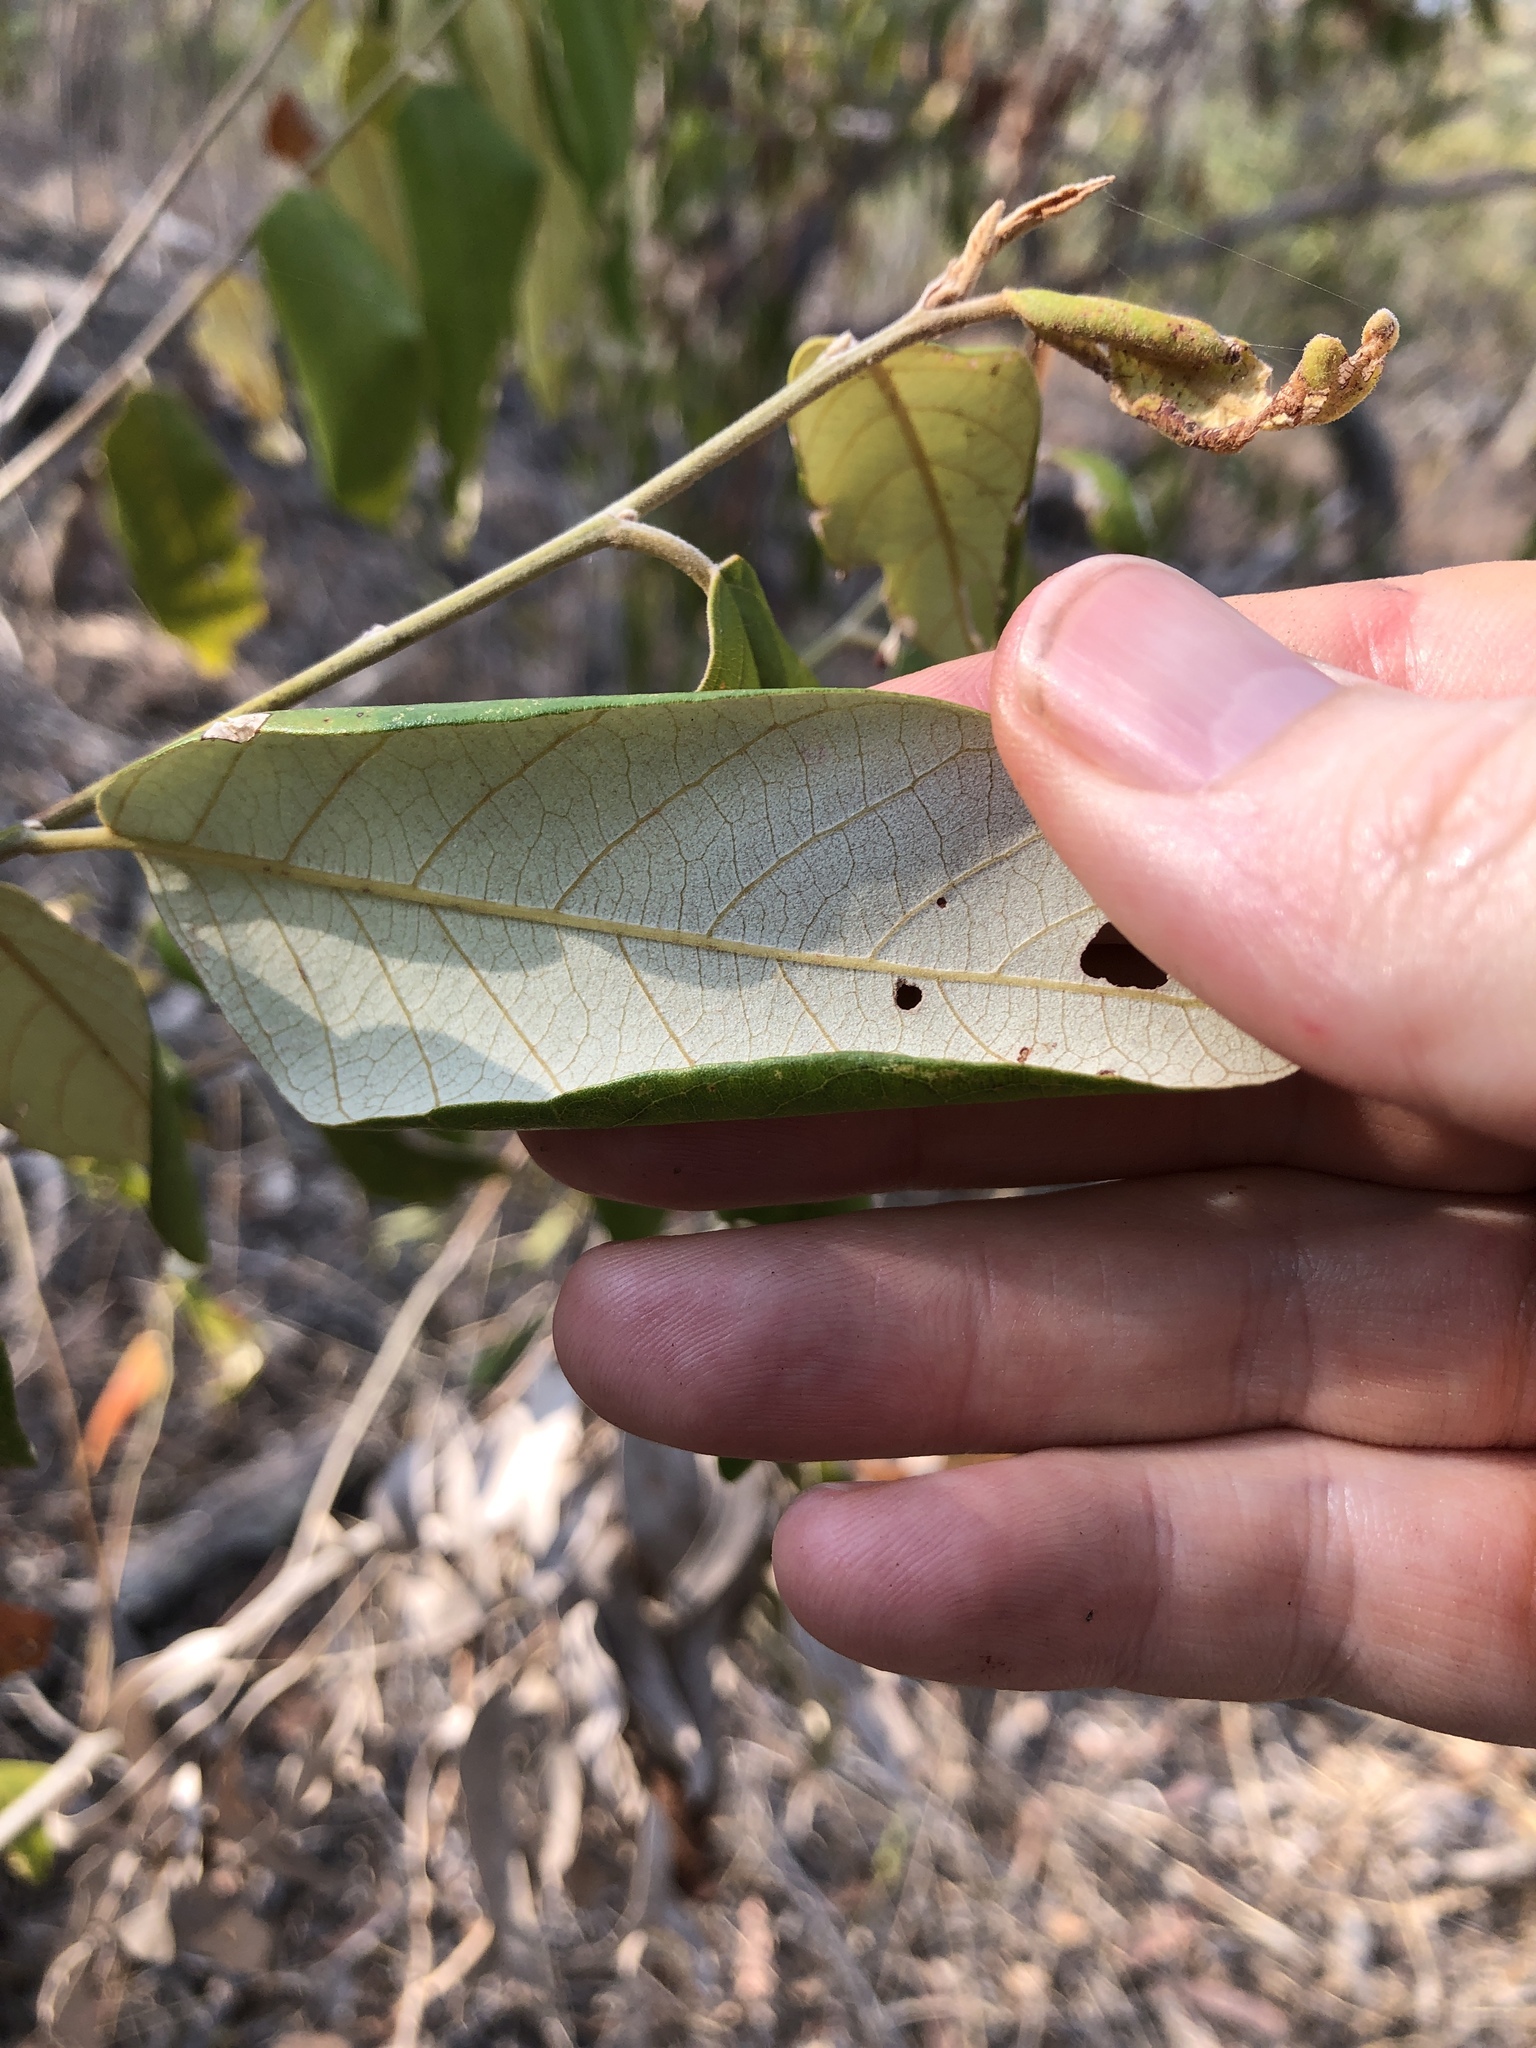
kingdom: Plantae
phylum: Tracheophyta
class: Magnoliopsida
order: Rosales
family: Rhamnaceae
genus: Alphitonia
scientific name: Alphitonia excelsa
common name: Red ash
